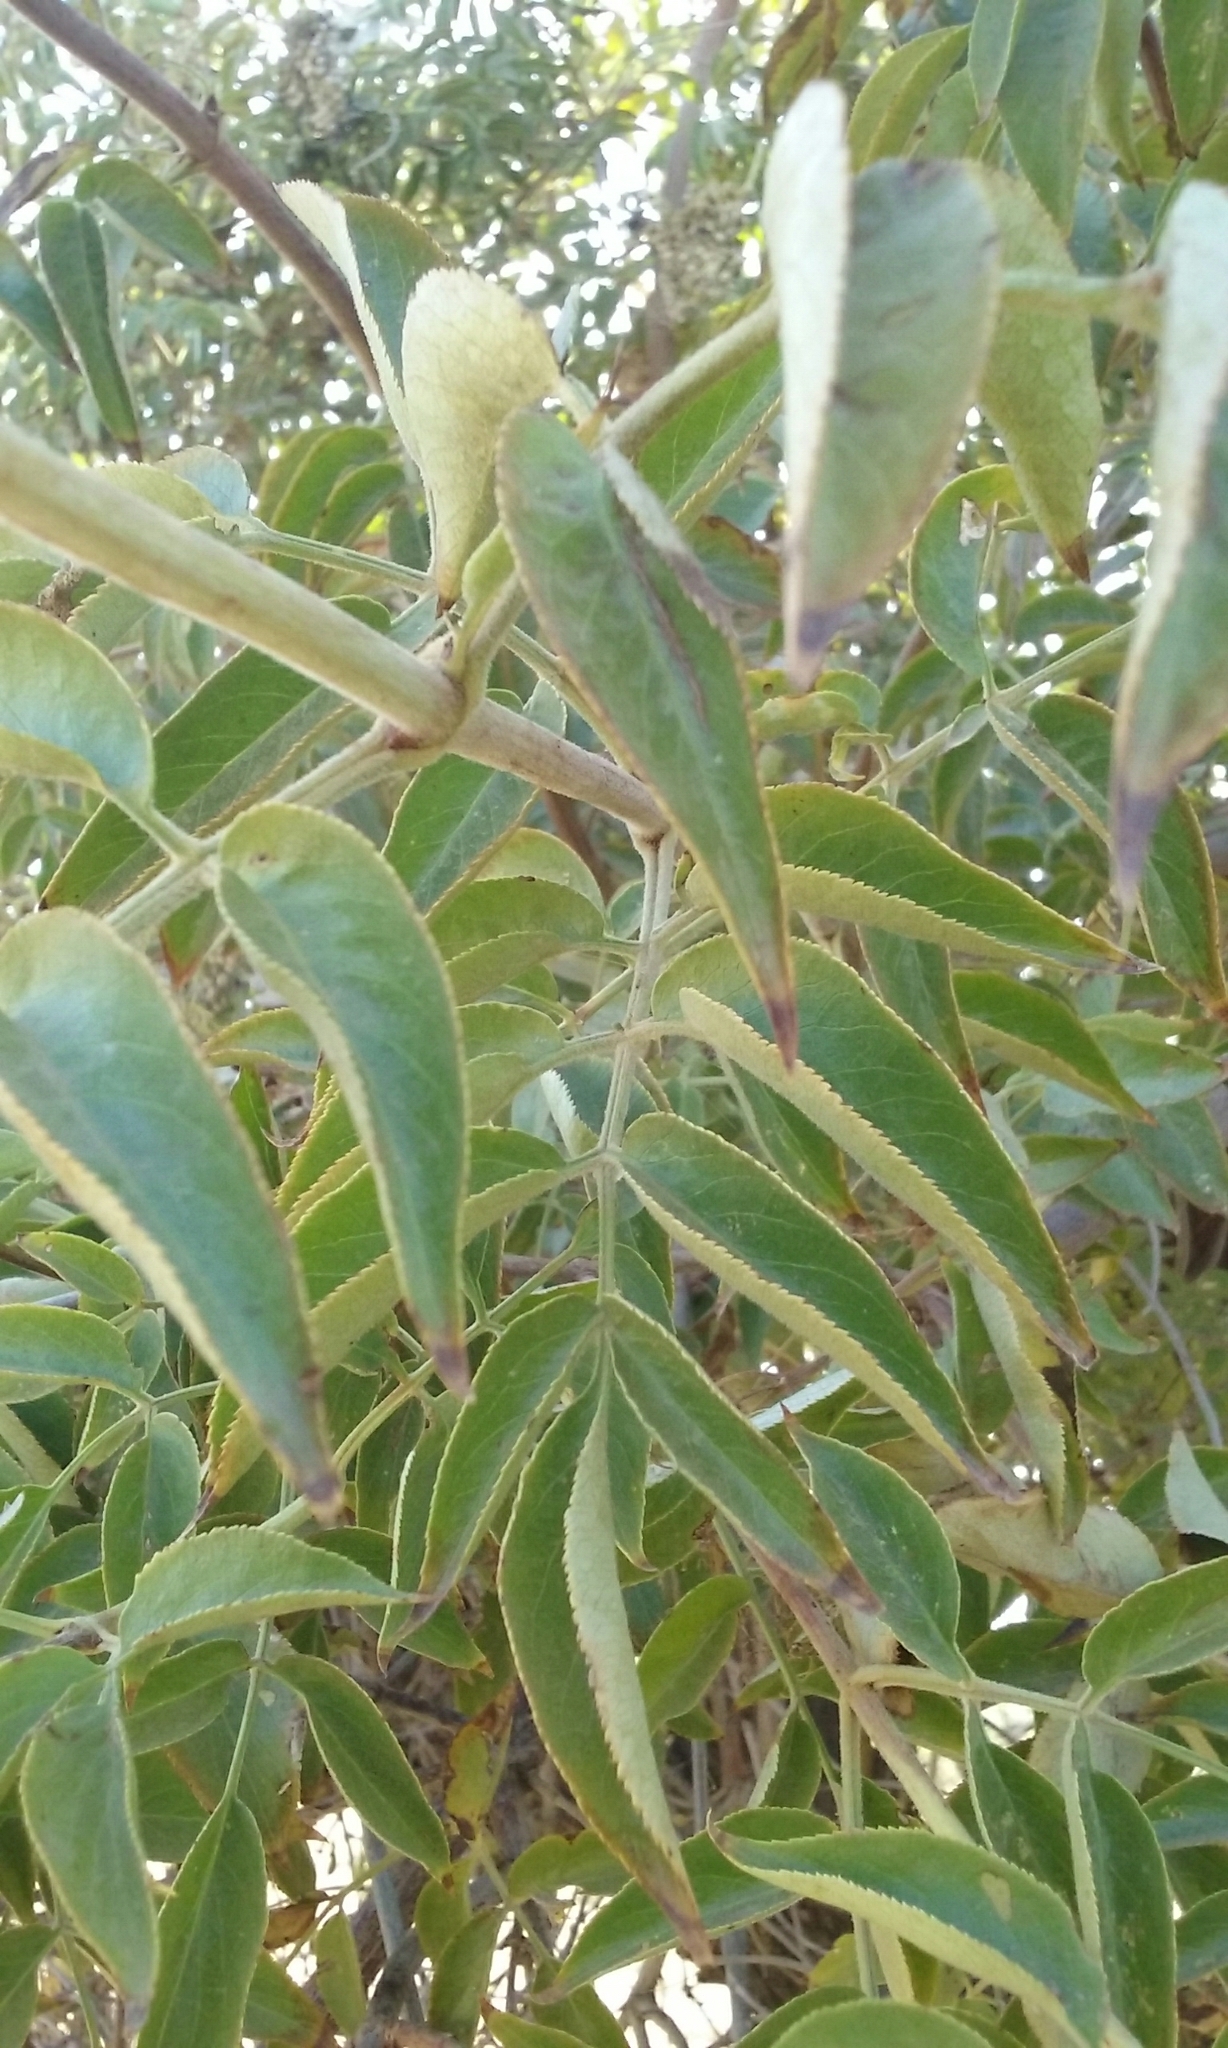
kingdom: Plantae
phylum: Tracheophyta
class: Magnoliopsida
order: Dipsacales
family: Viburnaceae
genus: Sambucus
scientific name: Sambucus cerulea
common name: Blue elder
